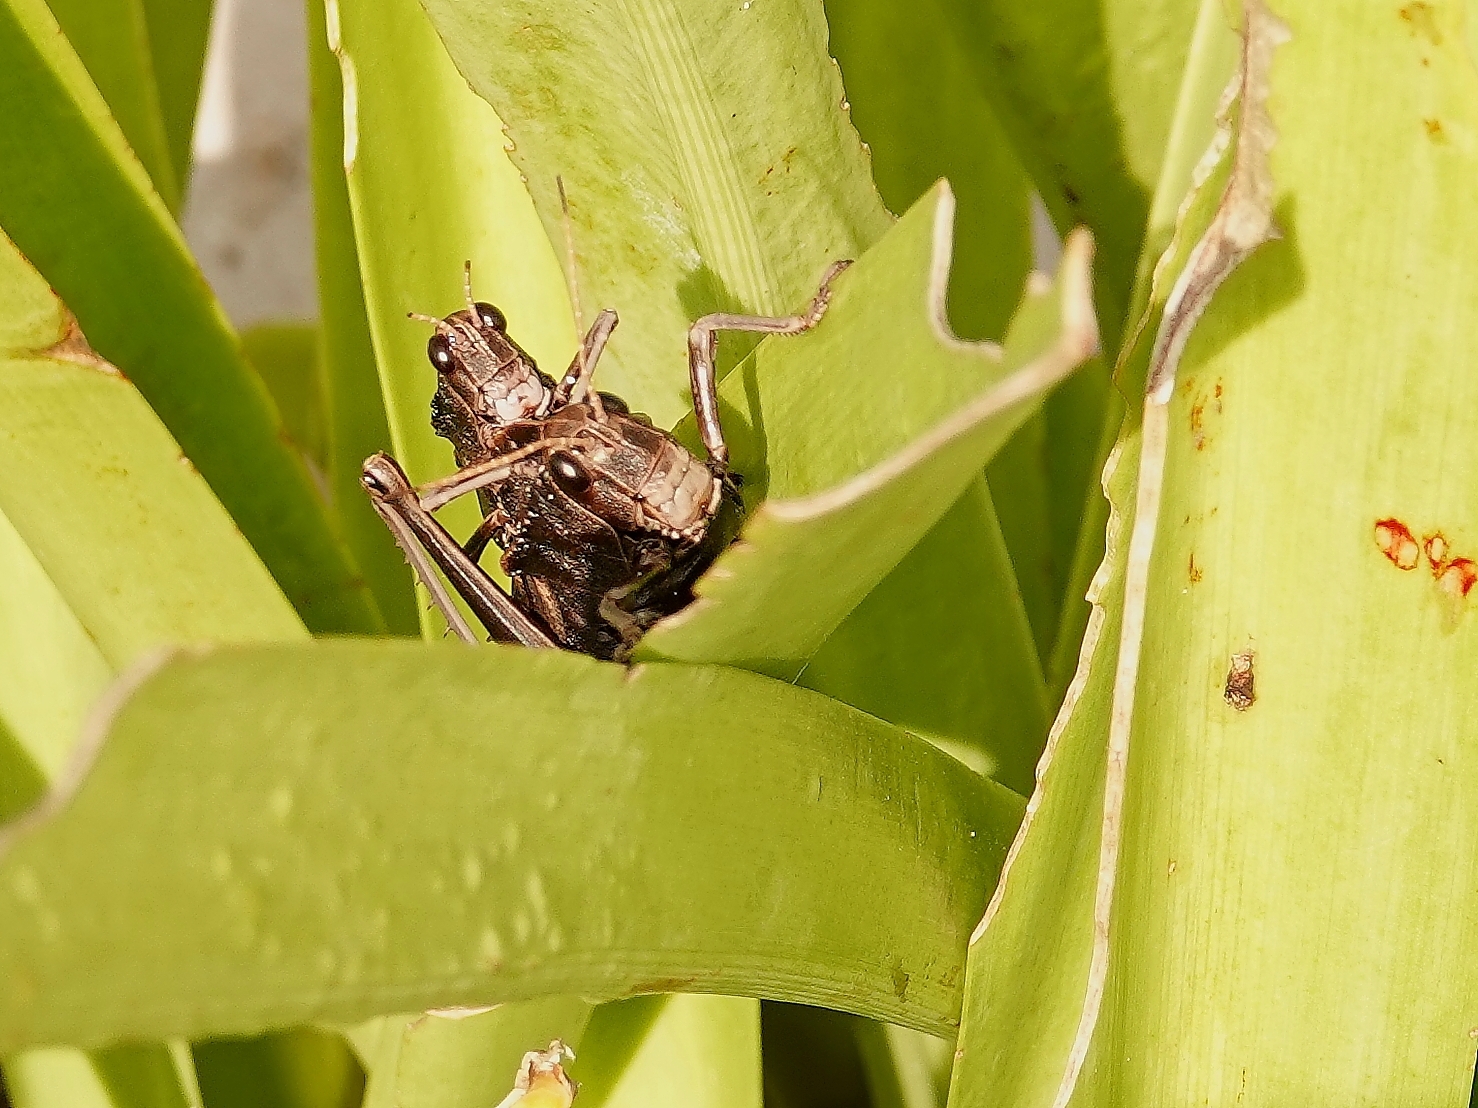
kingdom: Animalia
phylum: Arthropoda
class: Insecta
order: Orthoptera
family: Romaleidae
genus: Romalea
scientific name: Romalea
